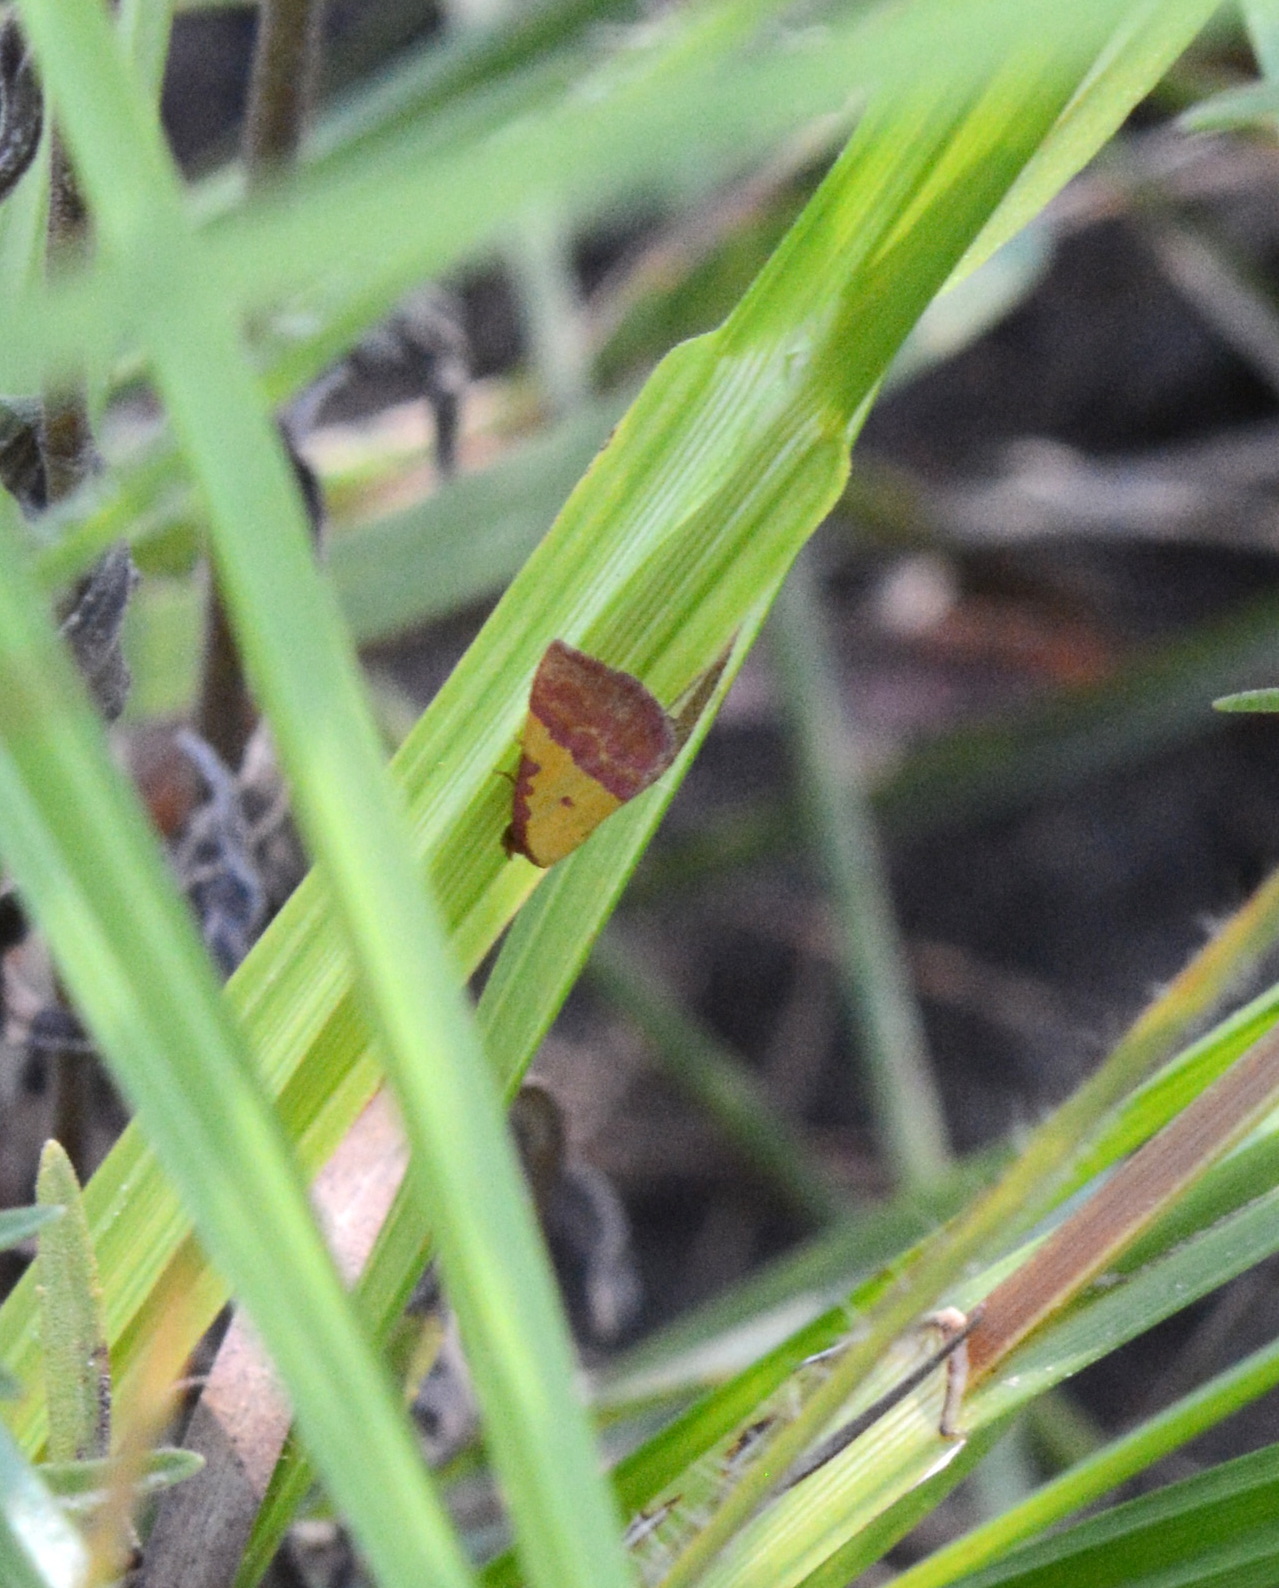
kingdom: Animalia
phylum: Arthropoda
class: Insecta
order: Lepidoptera
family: Erebidae
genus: Phytometra
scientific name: Phytometra rhodarialis
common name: Pink-bordered yellow
